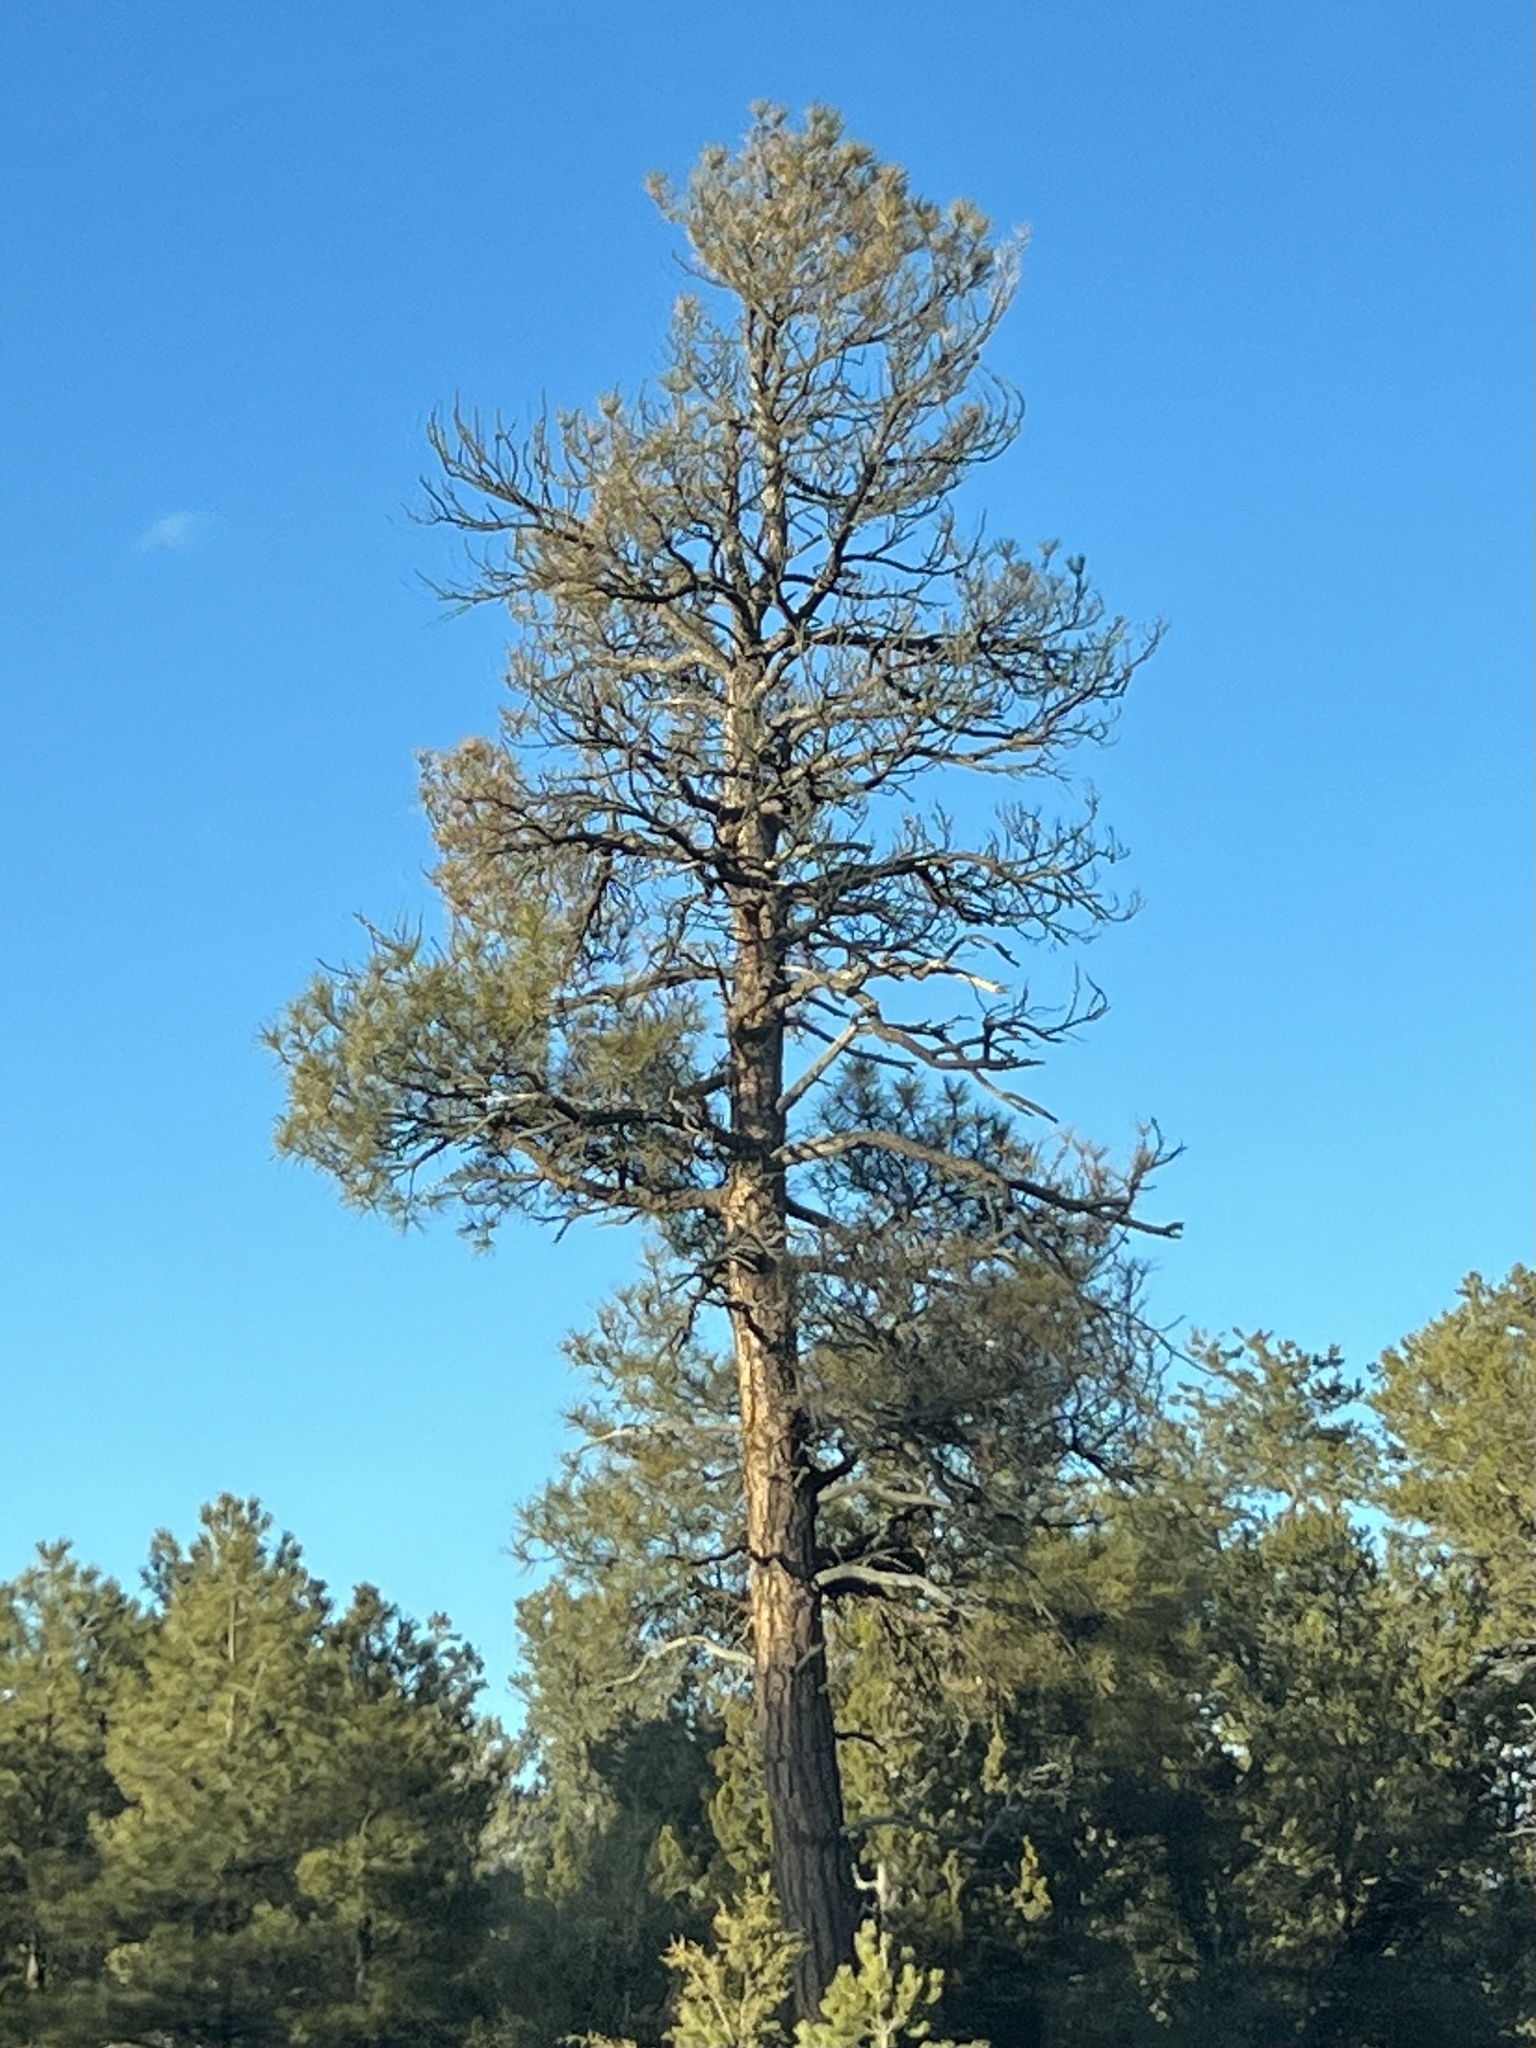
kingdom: Plantae
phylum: Tracheophyta
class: Pinopsida
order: Pinales
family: Pinaceae
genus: Pinus
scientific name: Pinus ponderosa
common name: Western yellow-pine
